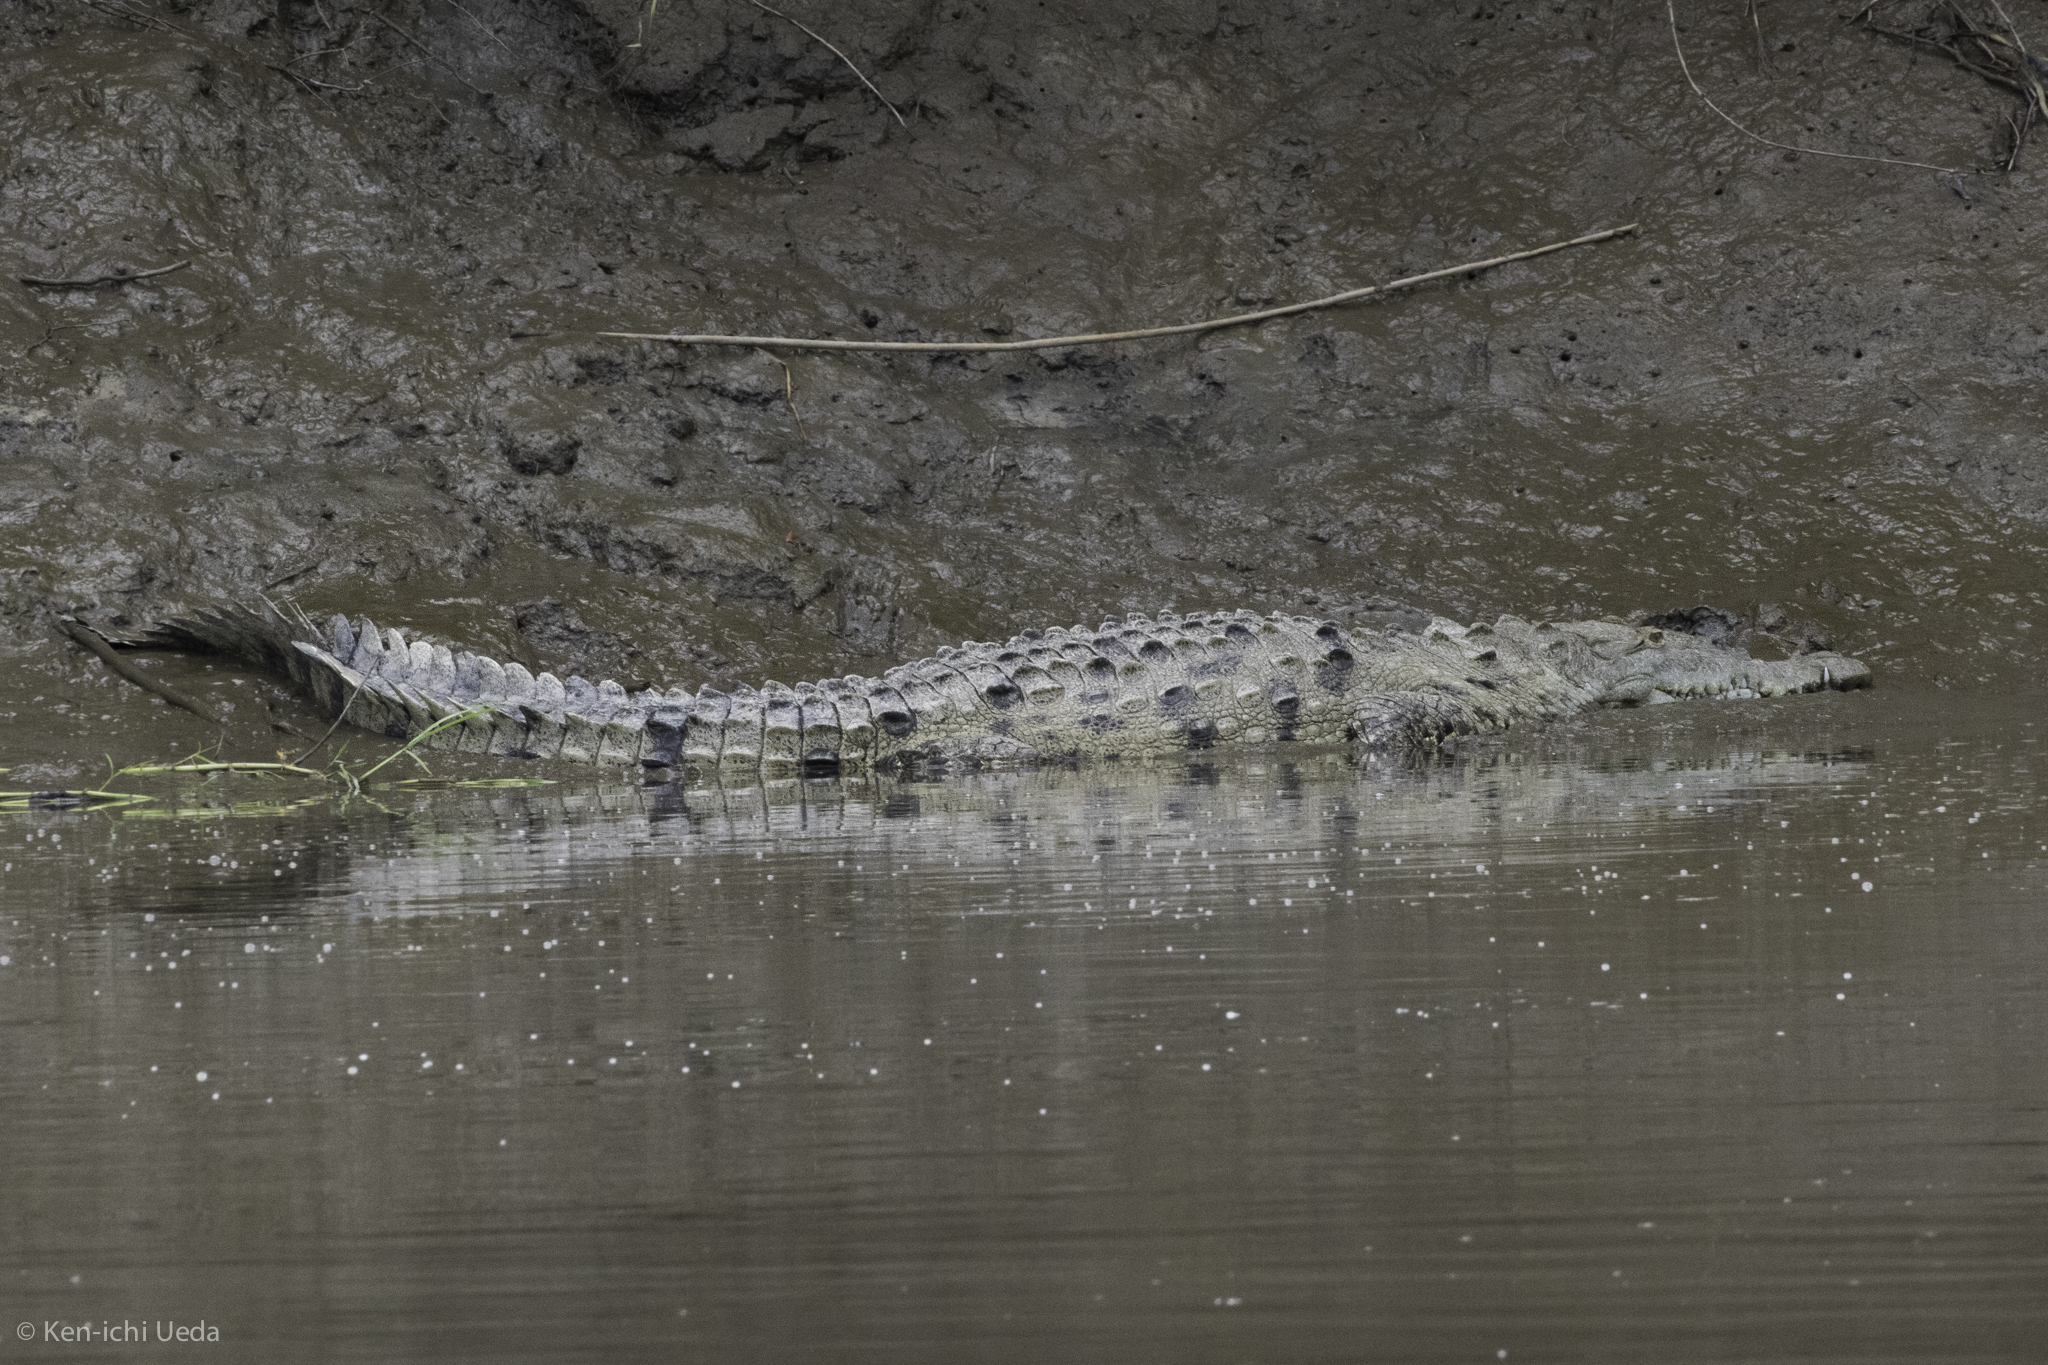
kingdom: Animalia
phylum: Chordata
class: Crocodylia
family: Crocodylidae
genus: Crocodylus
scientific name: Crocodylus acutus
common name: American crocodile
